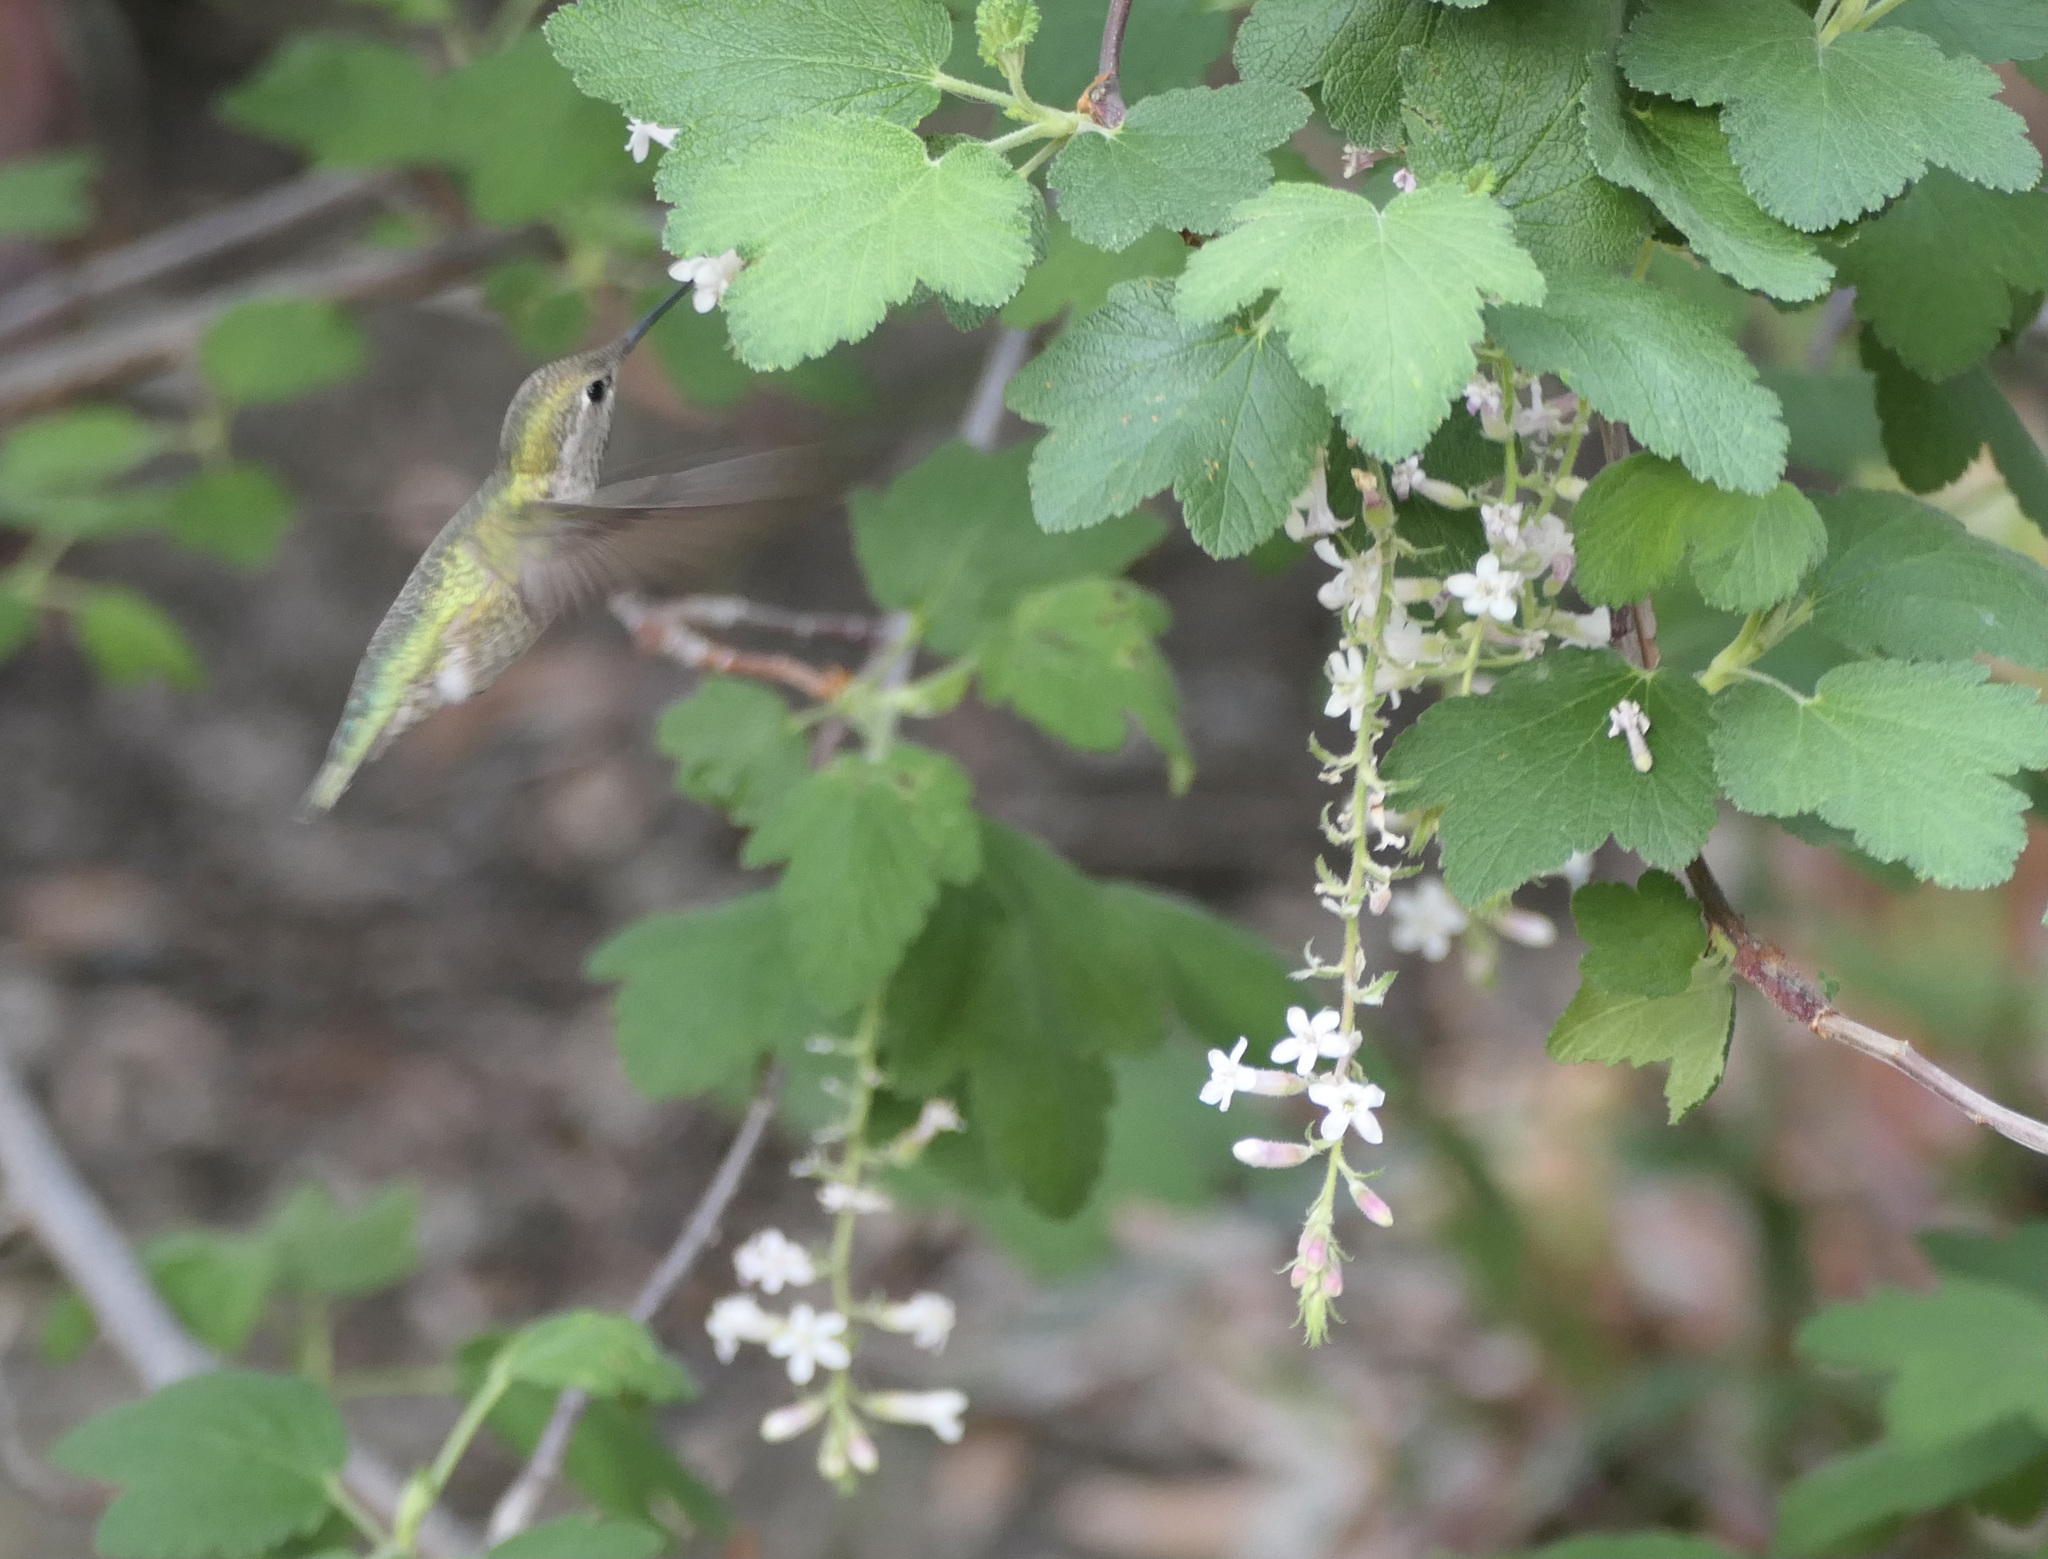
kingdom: Animalia
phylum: Chordata
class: Aves
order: Apodiformes
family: Trochilidae
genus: Calypte
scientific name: Calypte anna
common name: Anna's hummingbird
